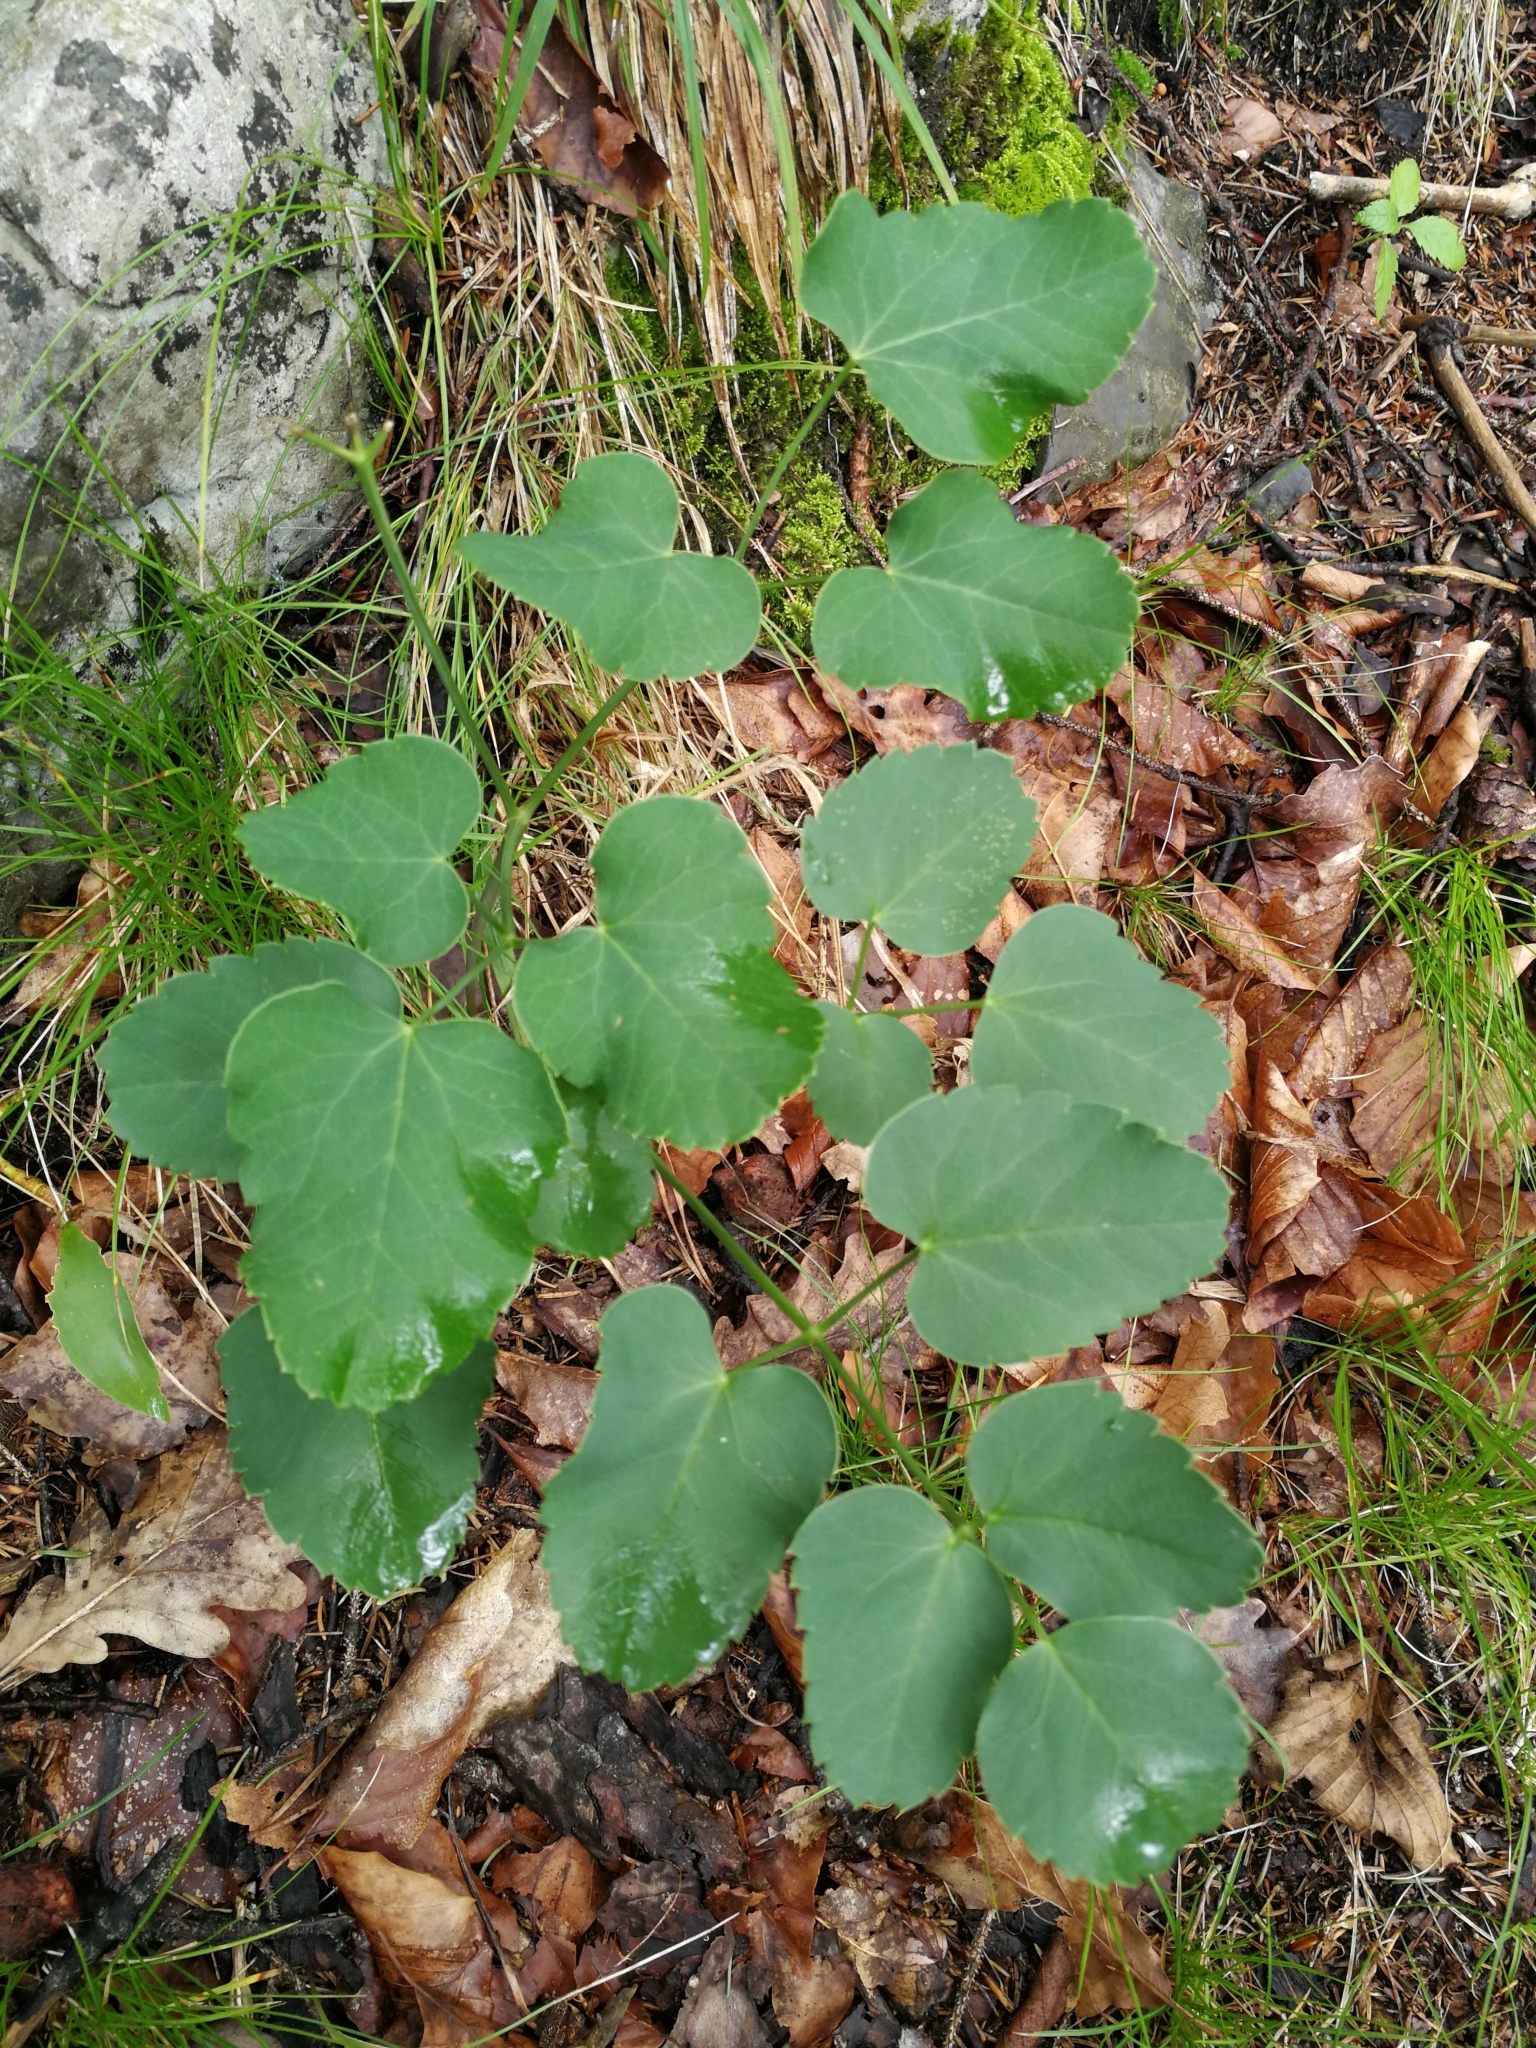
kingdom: Plantae
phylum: Tracheophyta
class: Magnoliopsida
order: Apiales
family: Apiaceae
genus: Laserpitium
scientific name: Laserpitium latifolium
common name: Broadleaf sermountain
